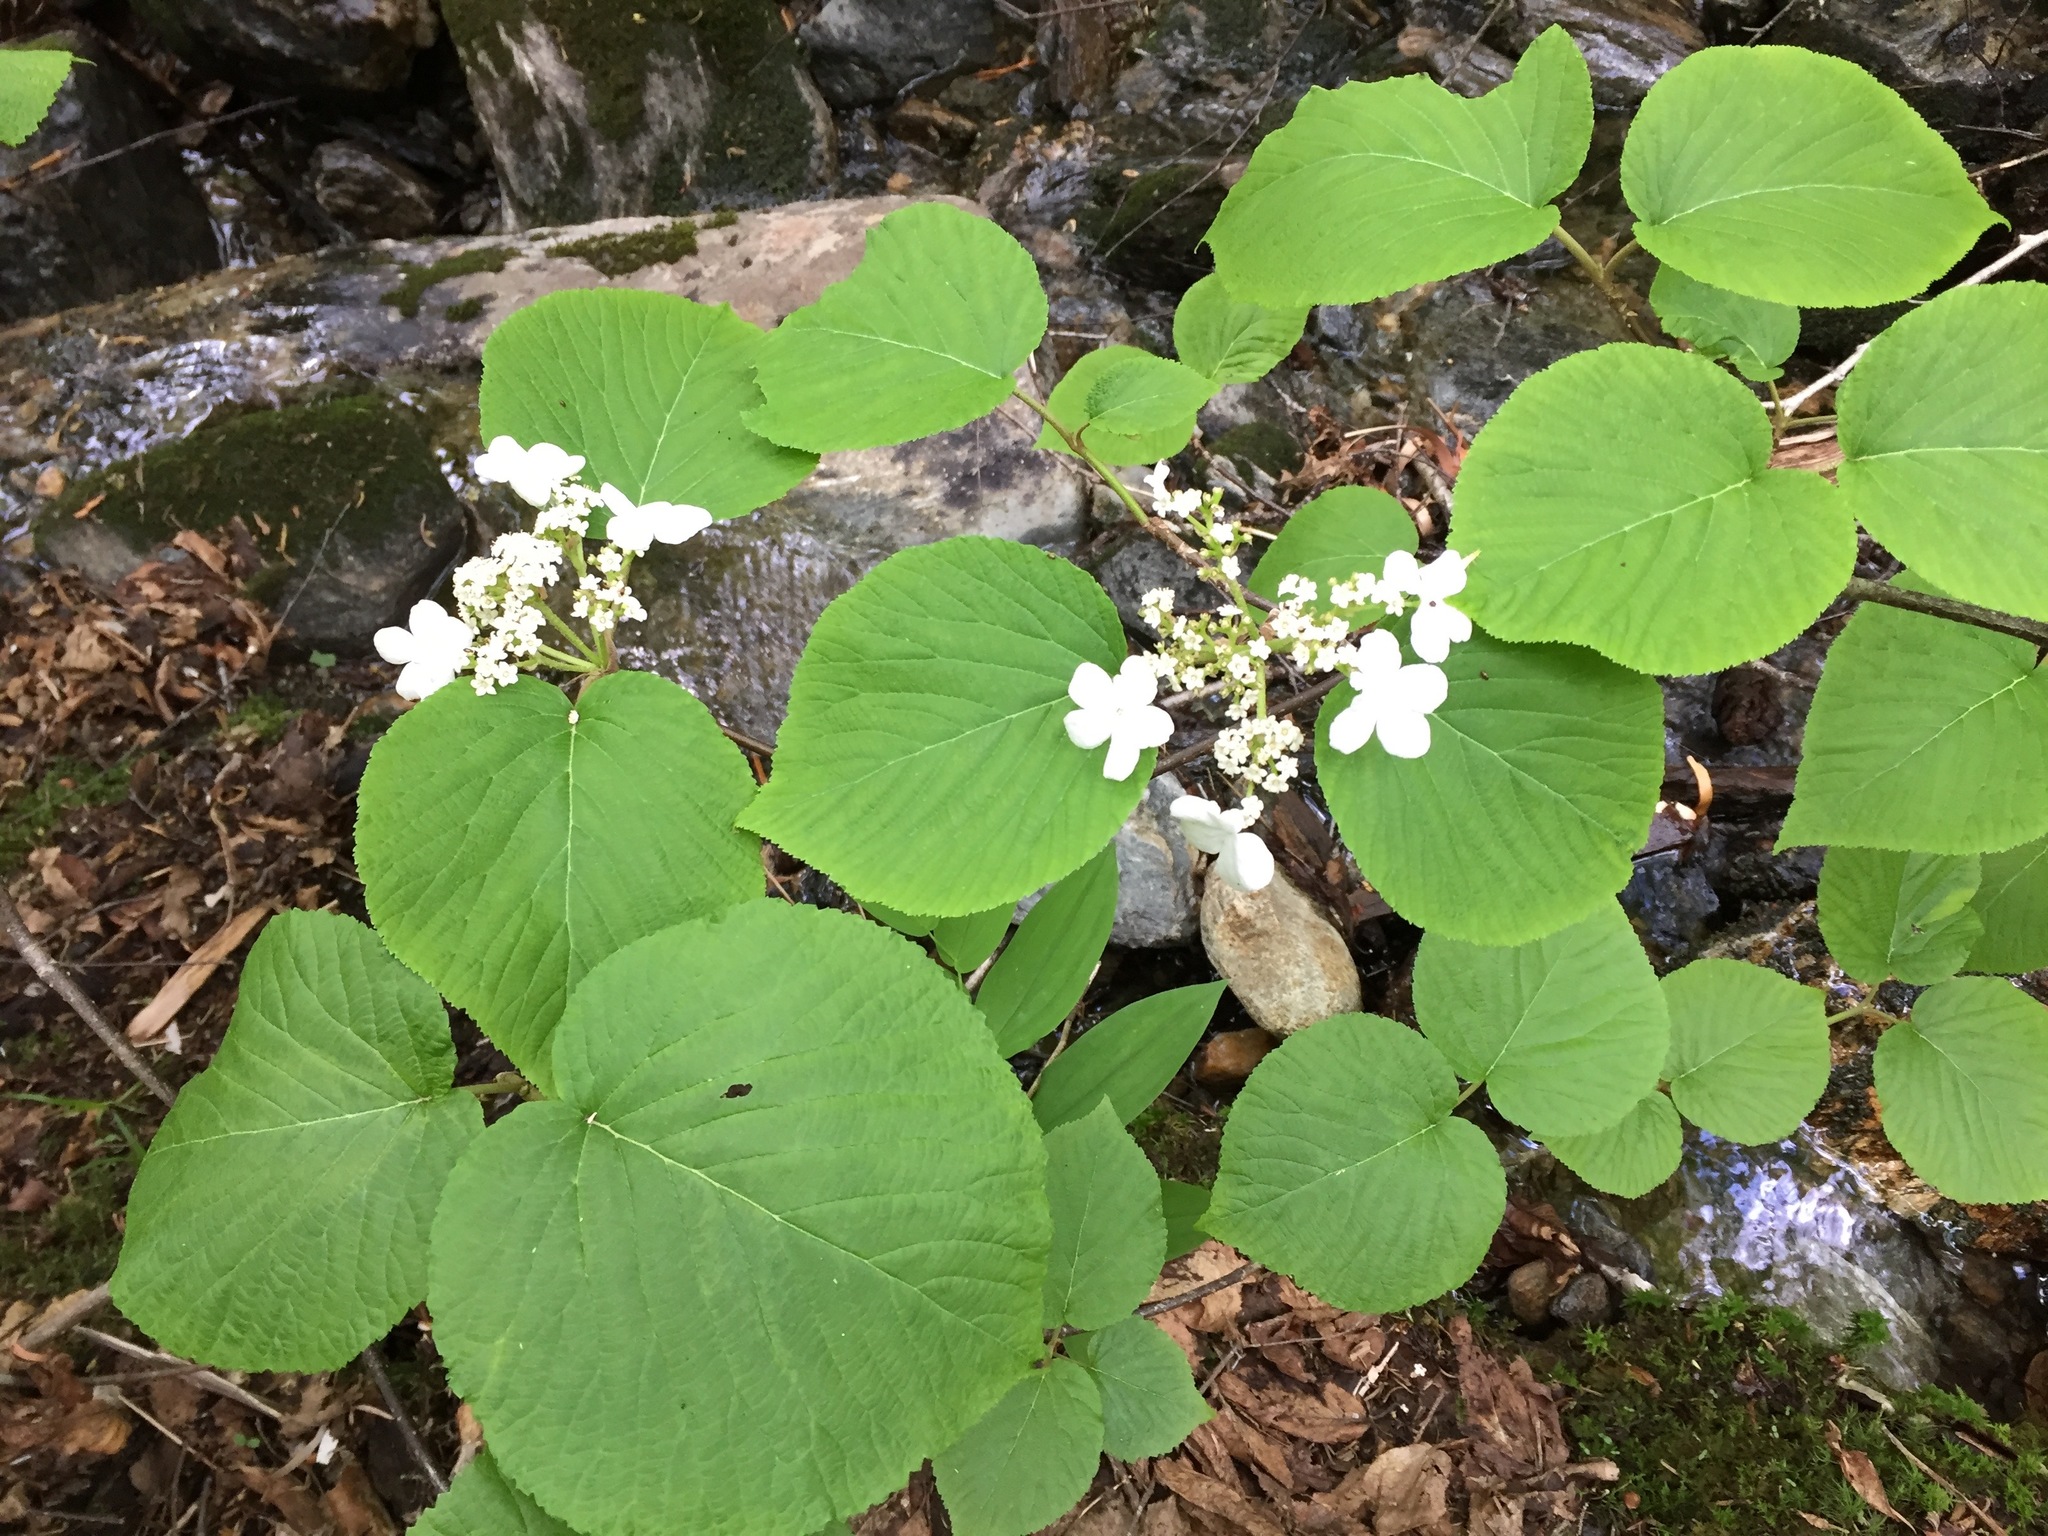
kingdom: Plantae
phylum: Tracheophyta
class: Magnoliopsida
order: Dipsacales
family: Viburnaceae
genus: Viburnum
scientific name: Viburnum lantanoides
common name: Hobblebush
